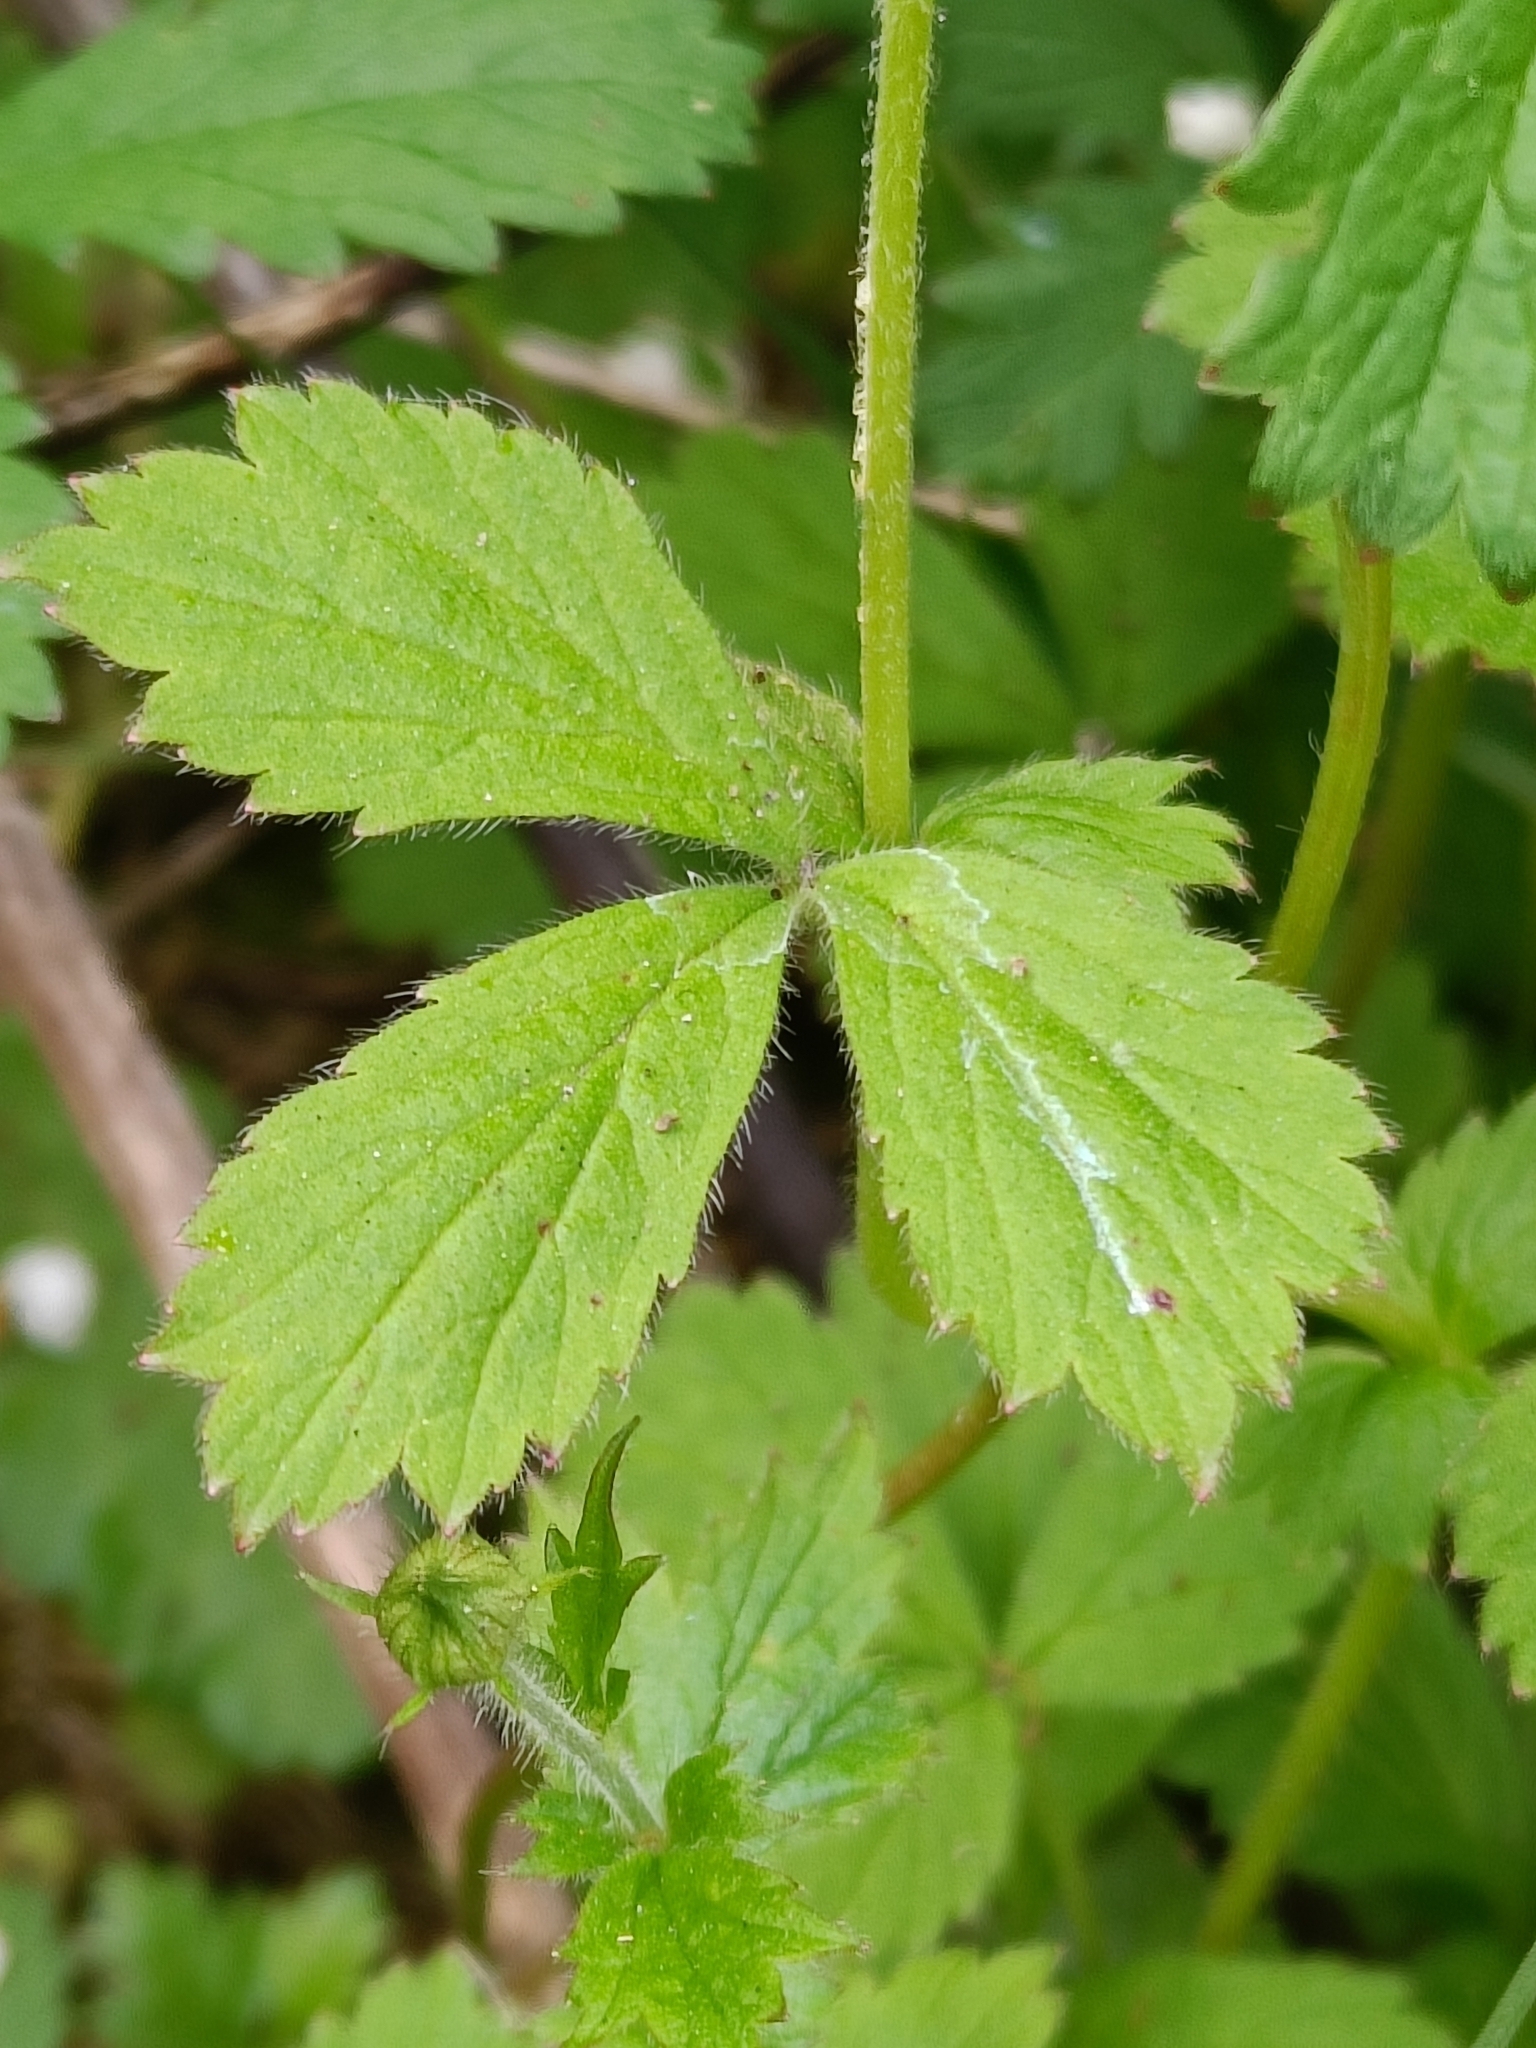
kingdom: Plantae
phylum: Tracheophyta
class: Magnoliopsida
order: Rosales
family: Rosaceae
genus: Geum
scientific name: Geum urbanum
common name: Wood avens
